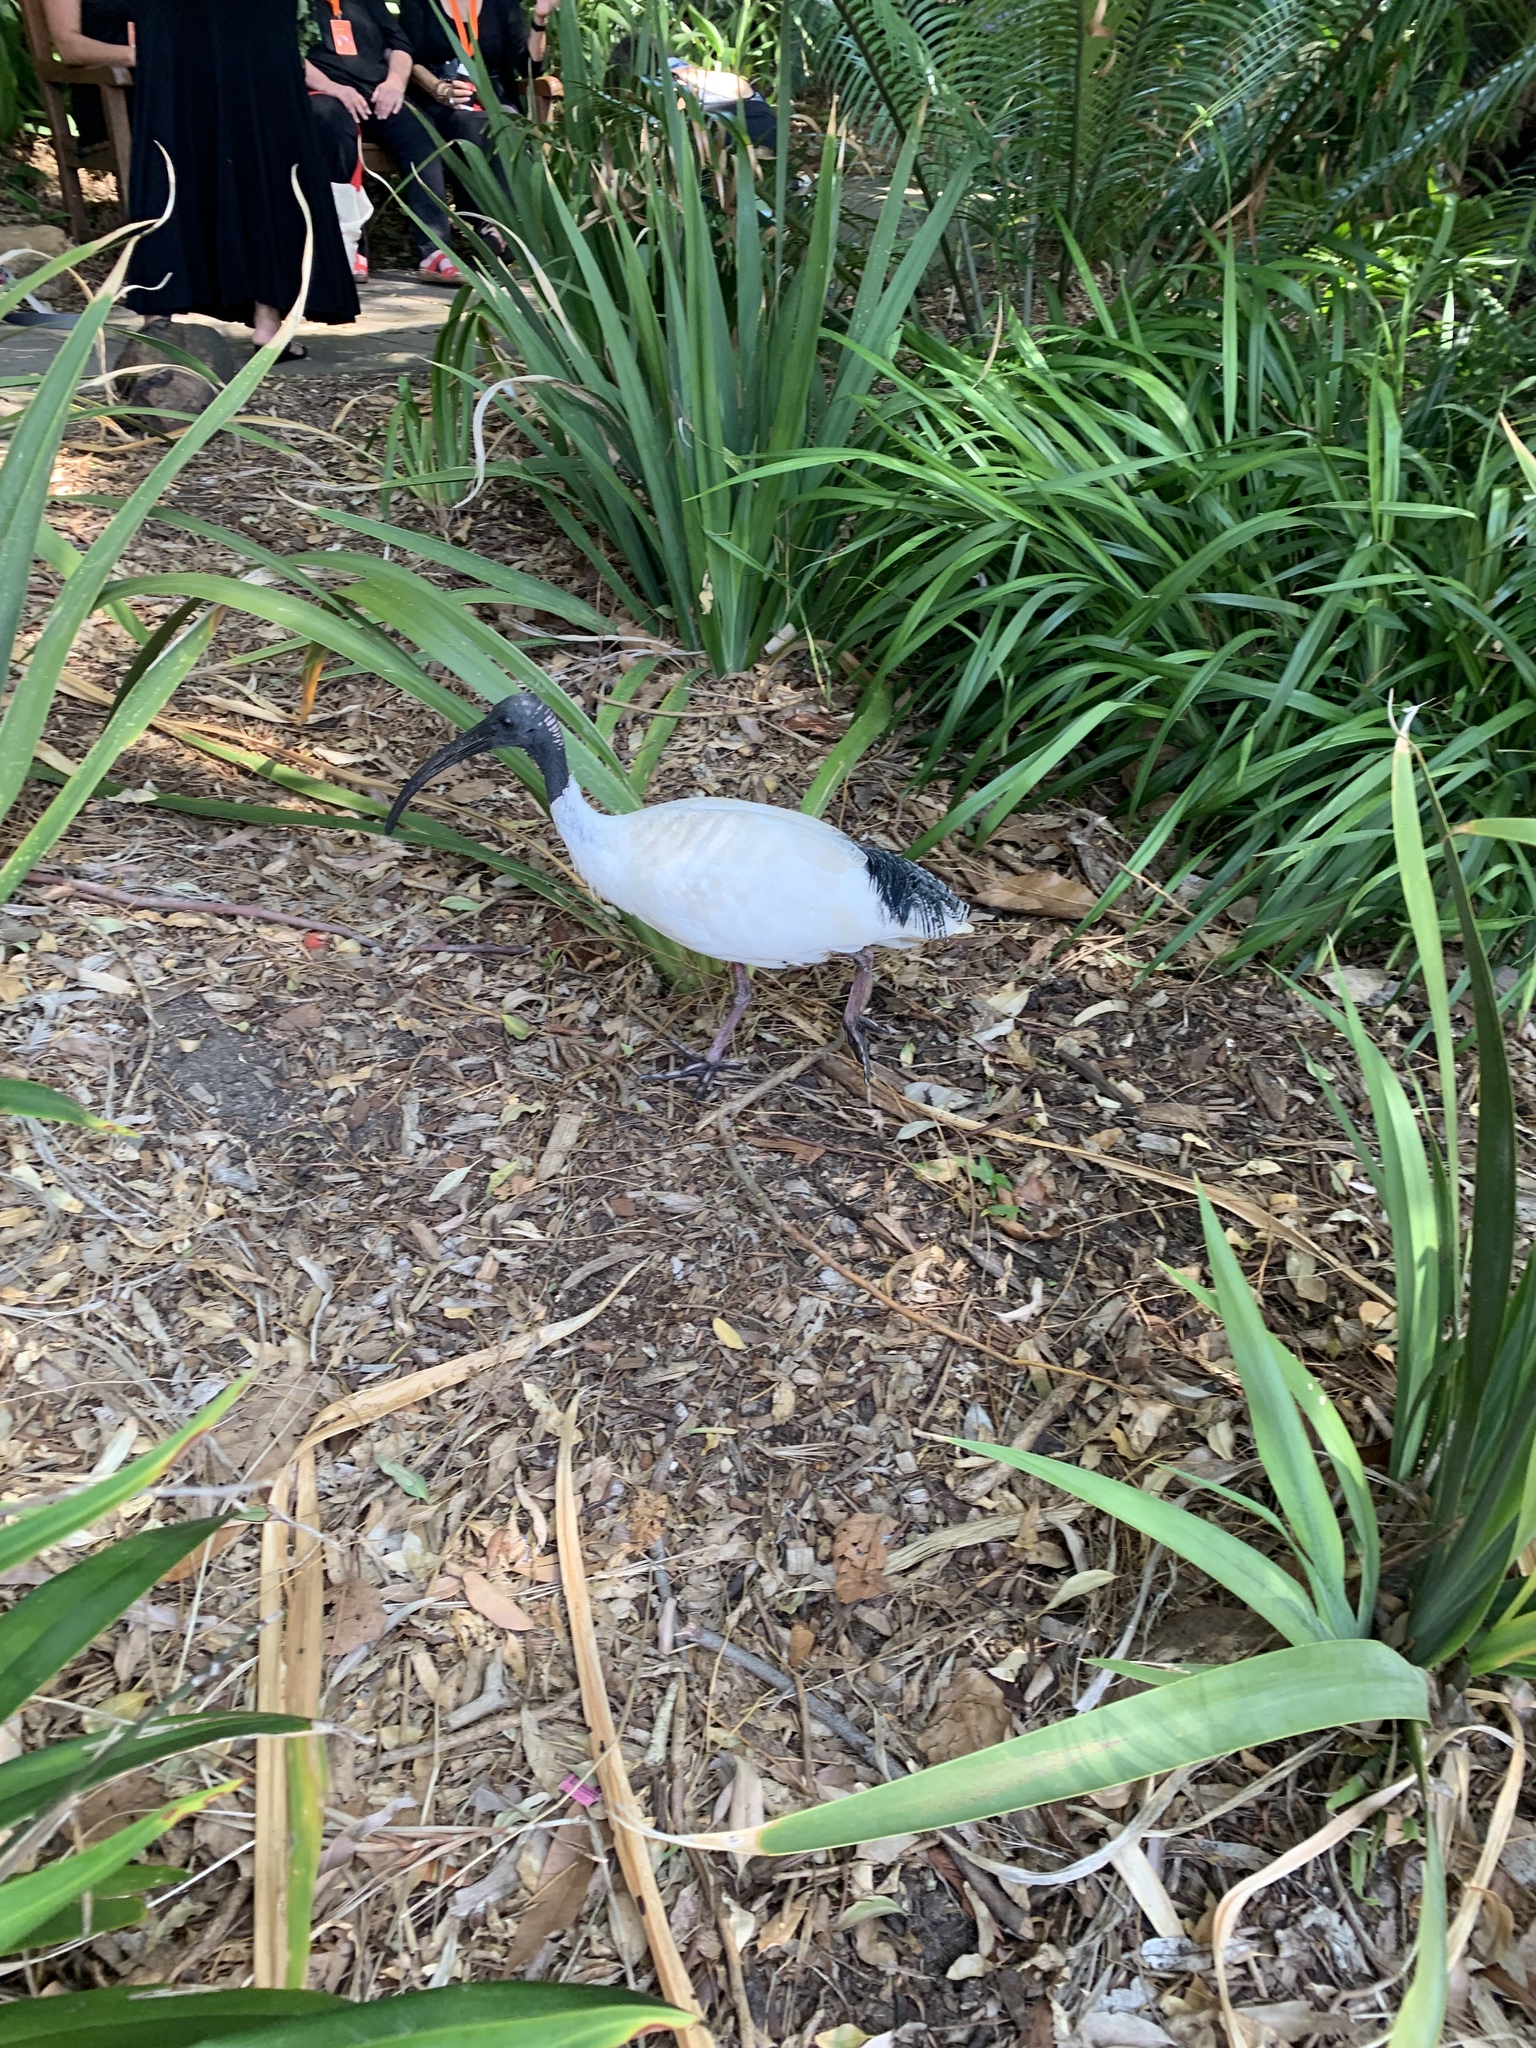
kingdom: Animalia
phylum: Chordata
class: Aves
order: Pelecaniformes
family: Threskiornithidae
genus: Threskiornis
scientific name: Threskiornis molucca
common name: Australian white ibis
